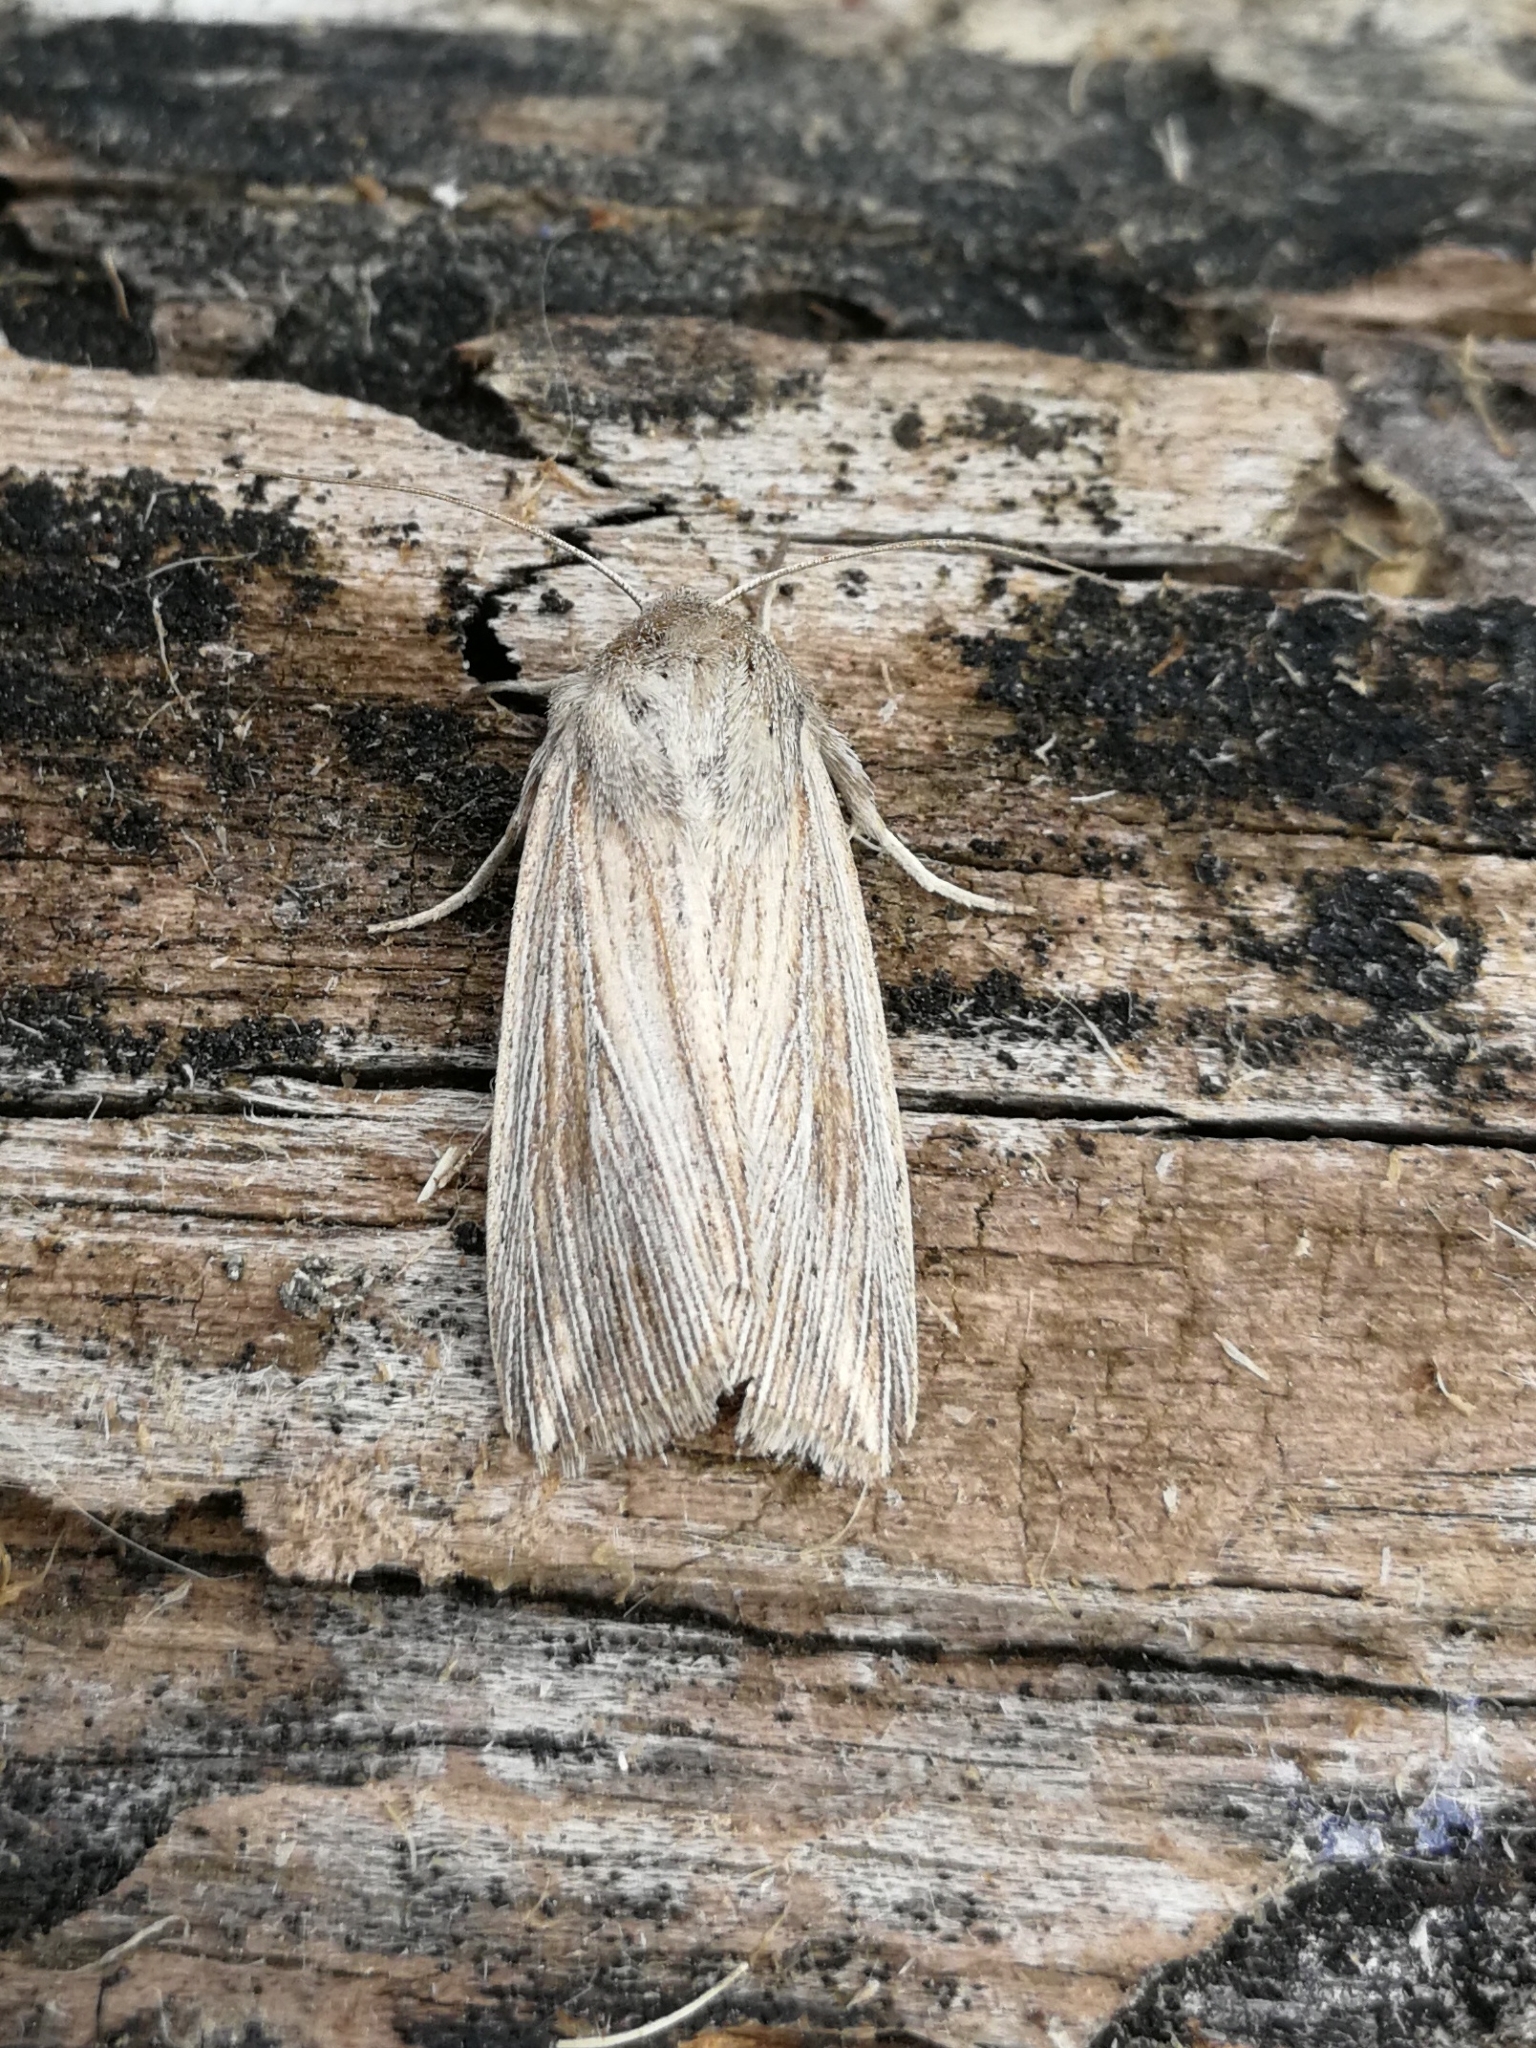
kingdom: Animalia
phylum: Arthropoda
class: Insecta
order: Lepidoptera
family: Noctuidae
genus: Mythimna
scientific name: Mythimna riparia
